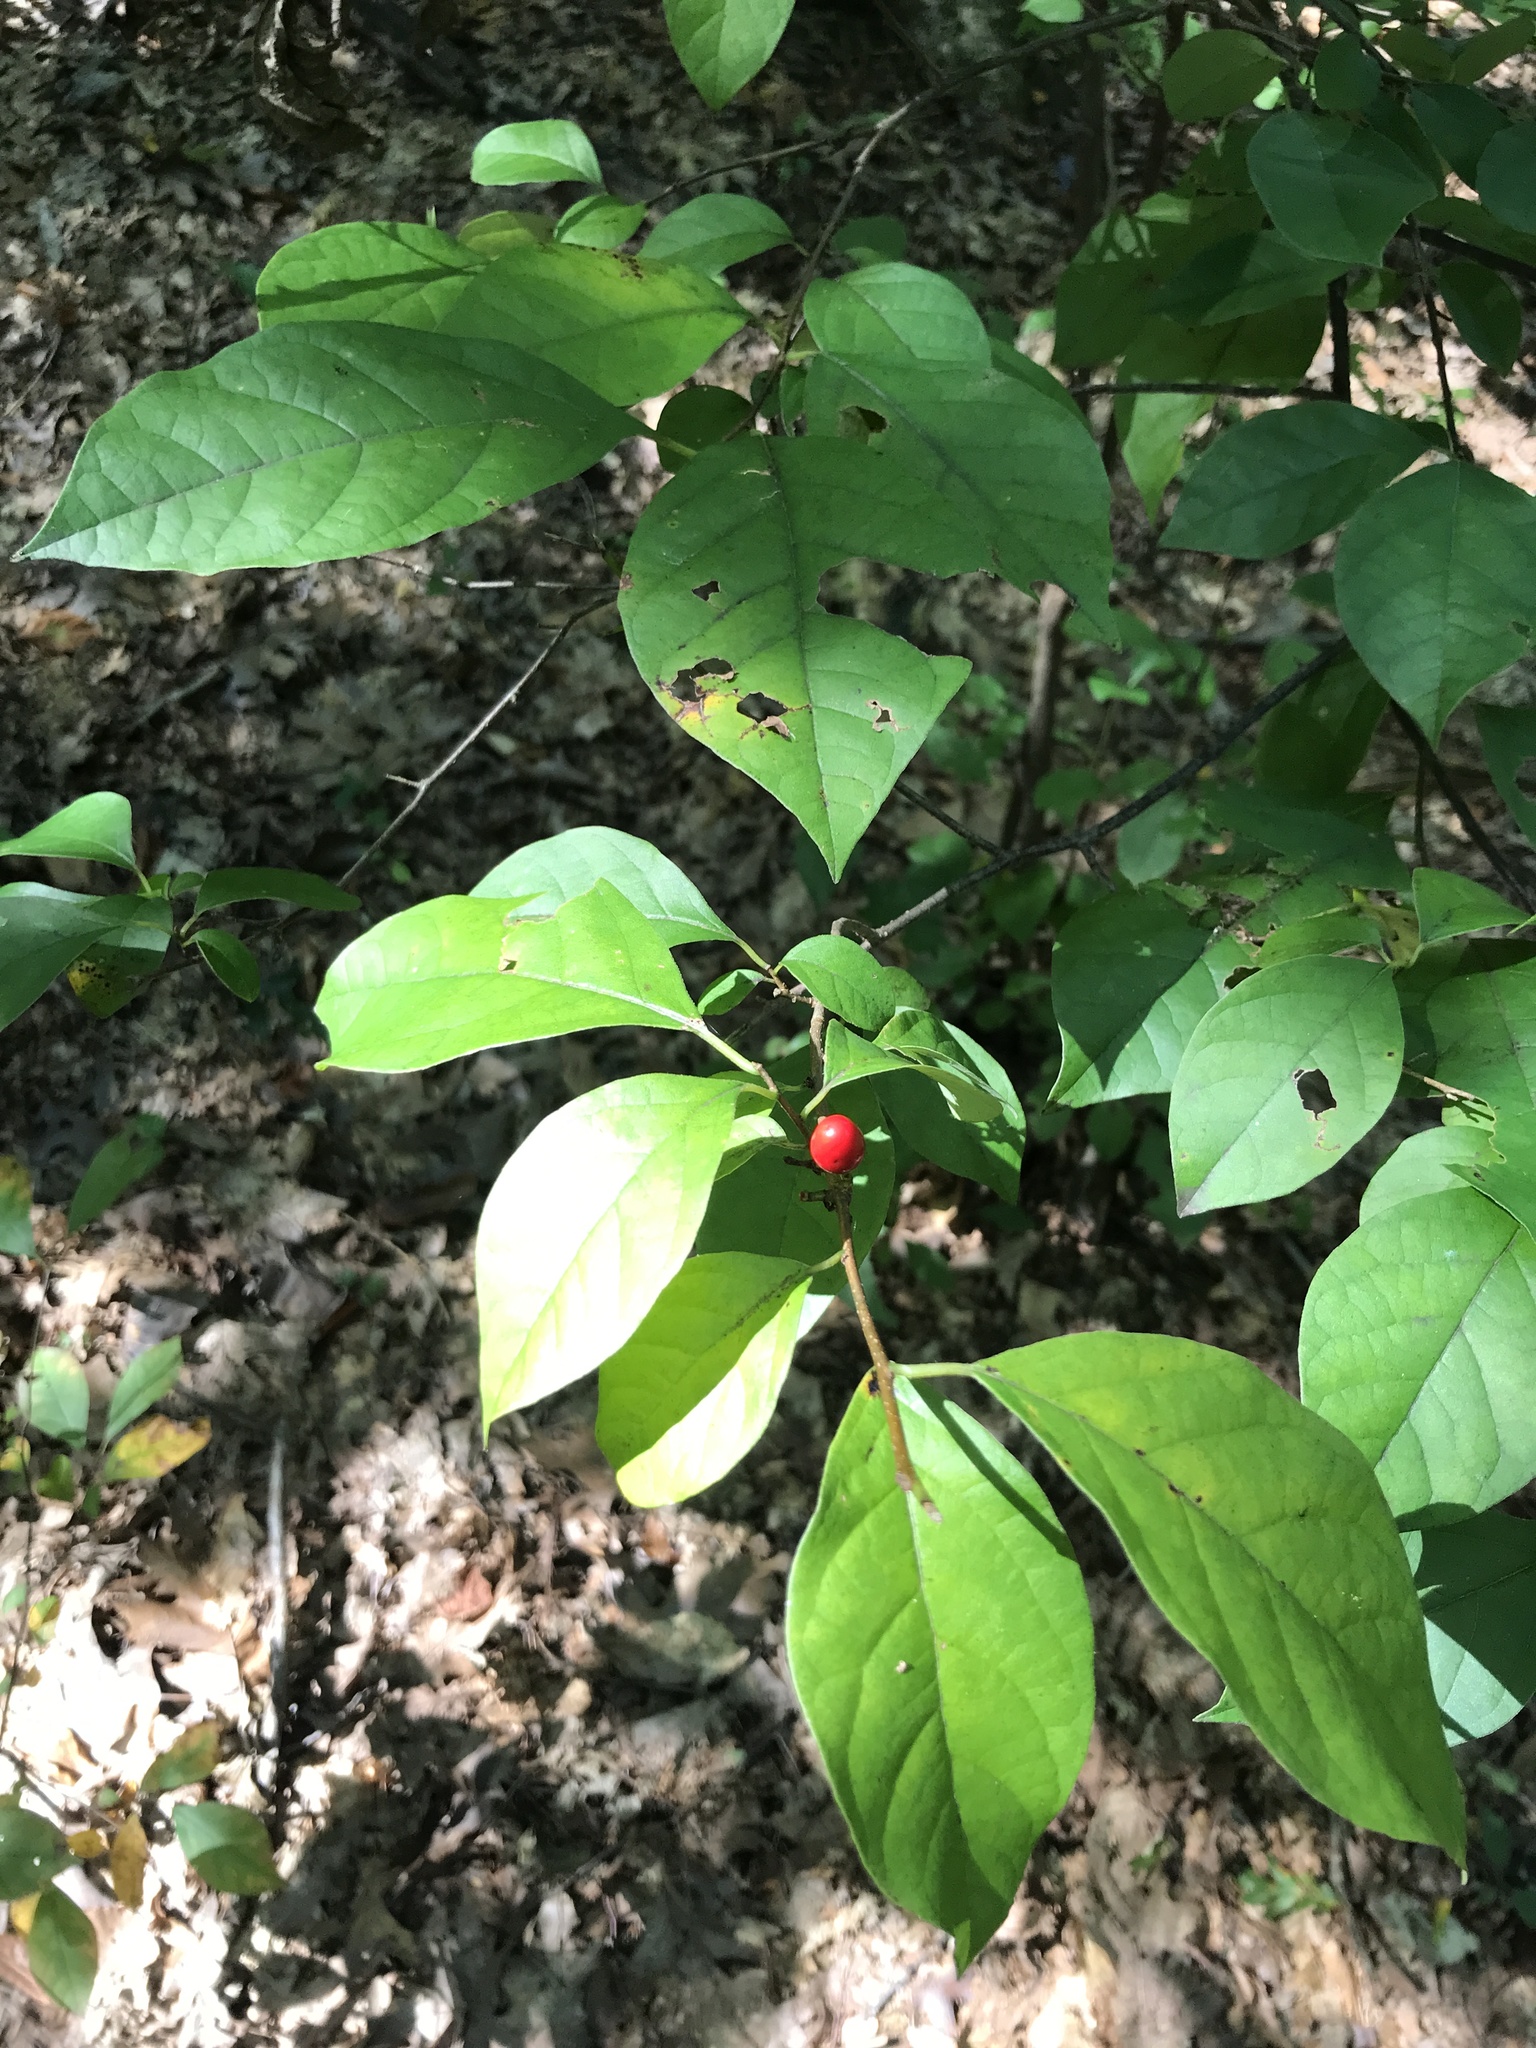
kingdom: Plantae
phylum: Tracheophyta
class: Magnoliopsida
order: Laurales
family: Lauraceae
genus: Lindera
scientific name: Lindera benzoin
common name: Spicebush
